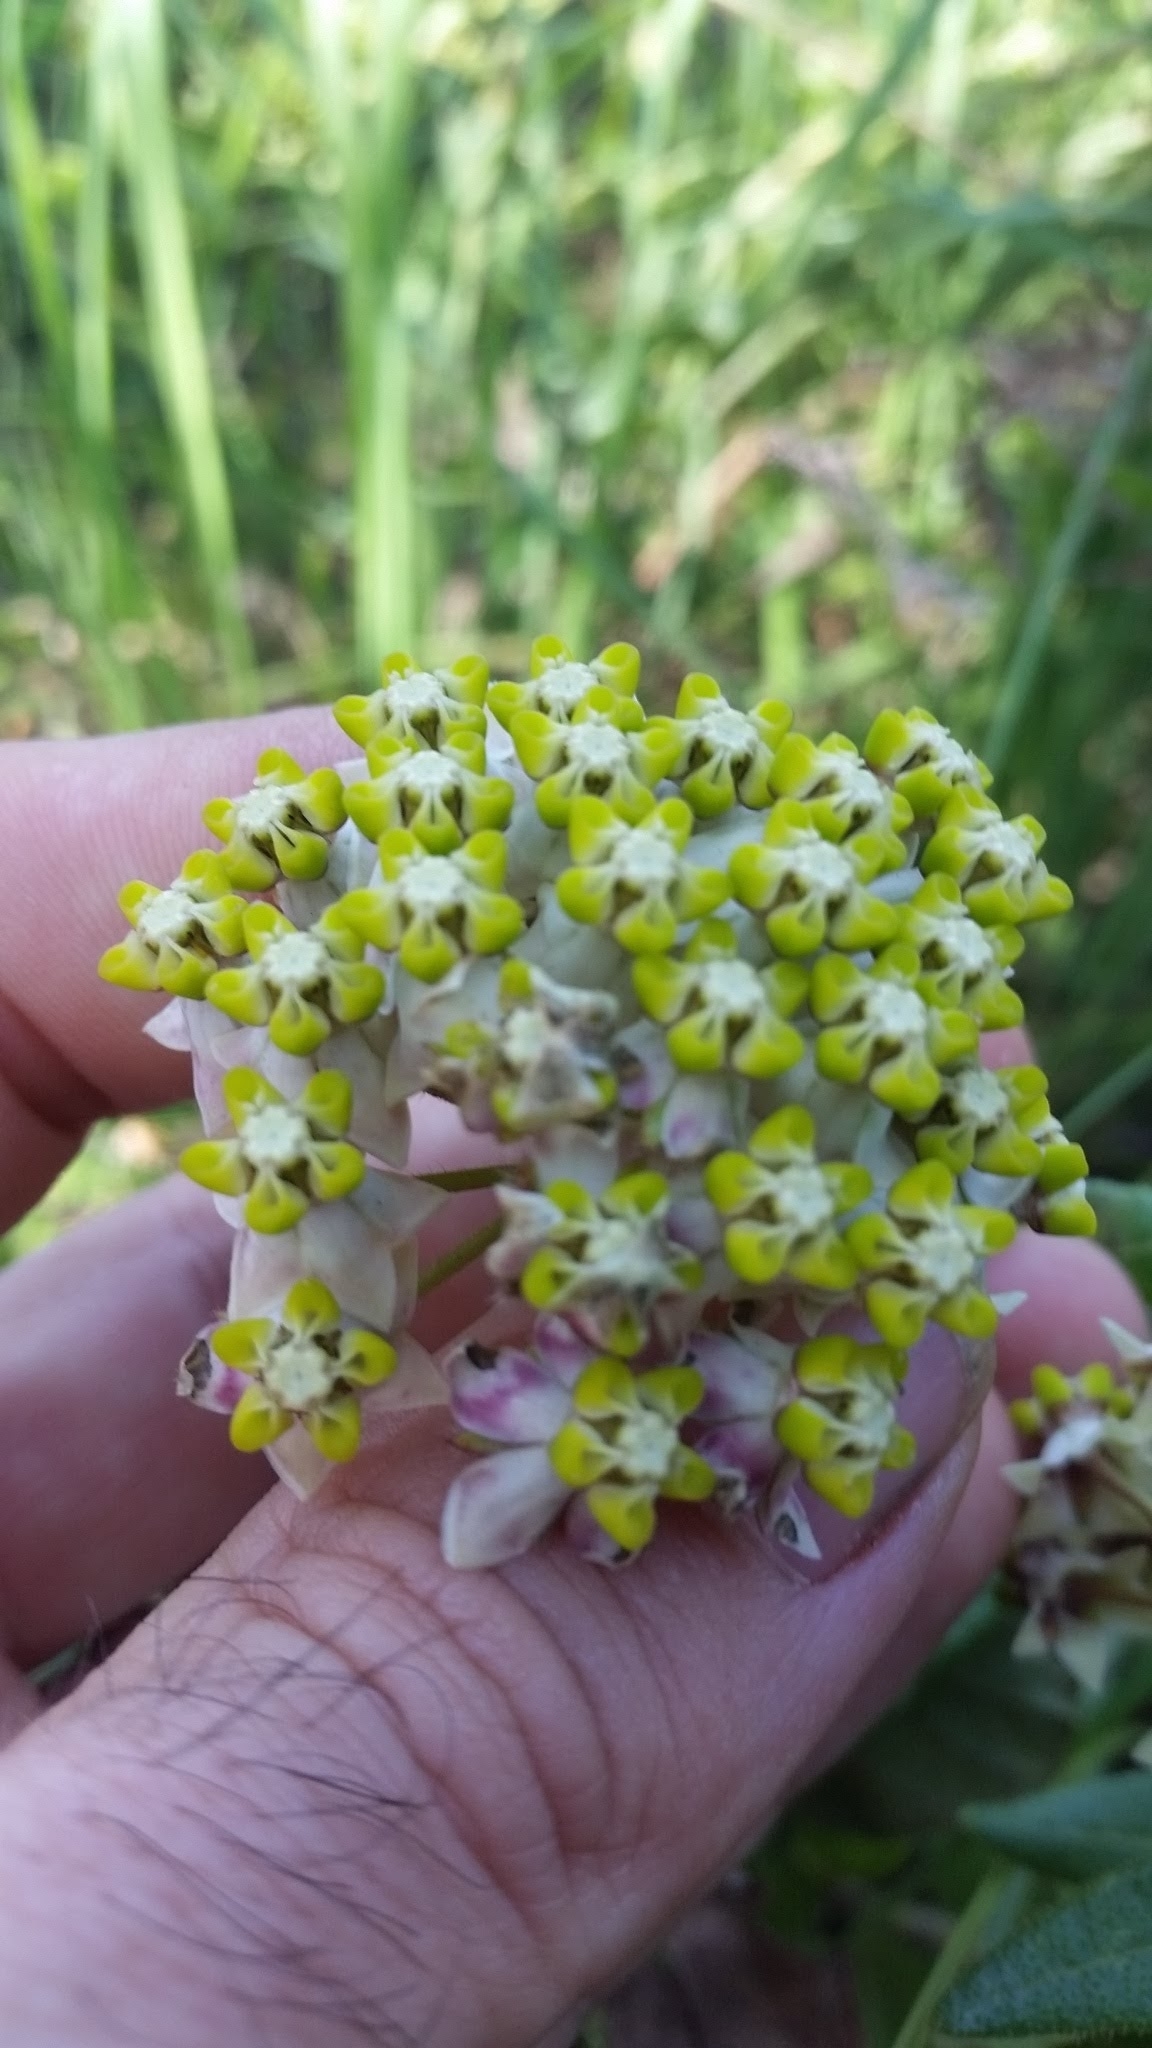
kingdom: Plantae
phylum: Tracheophyta
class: Magnoliopsida
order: Gentianales
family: Apocynaceae
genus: Asclepias
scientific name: Asclepias albens
